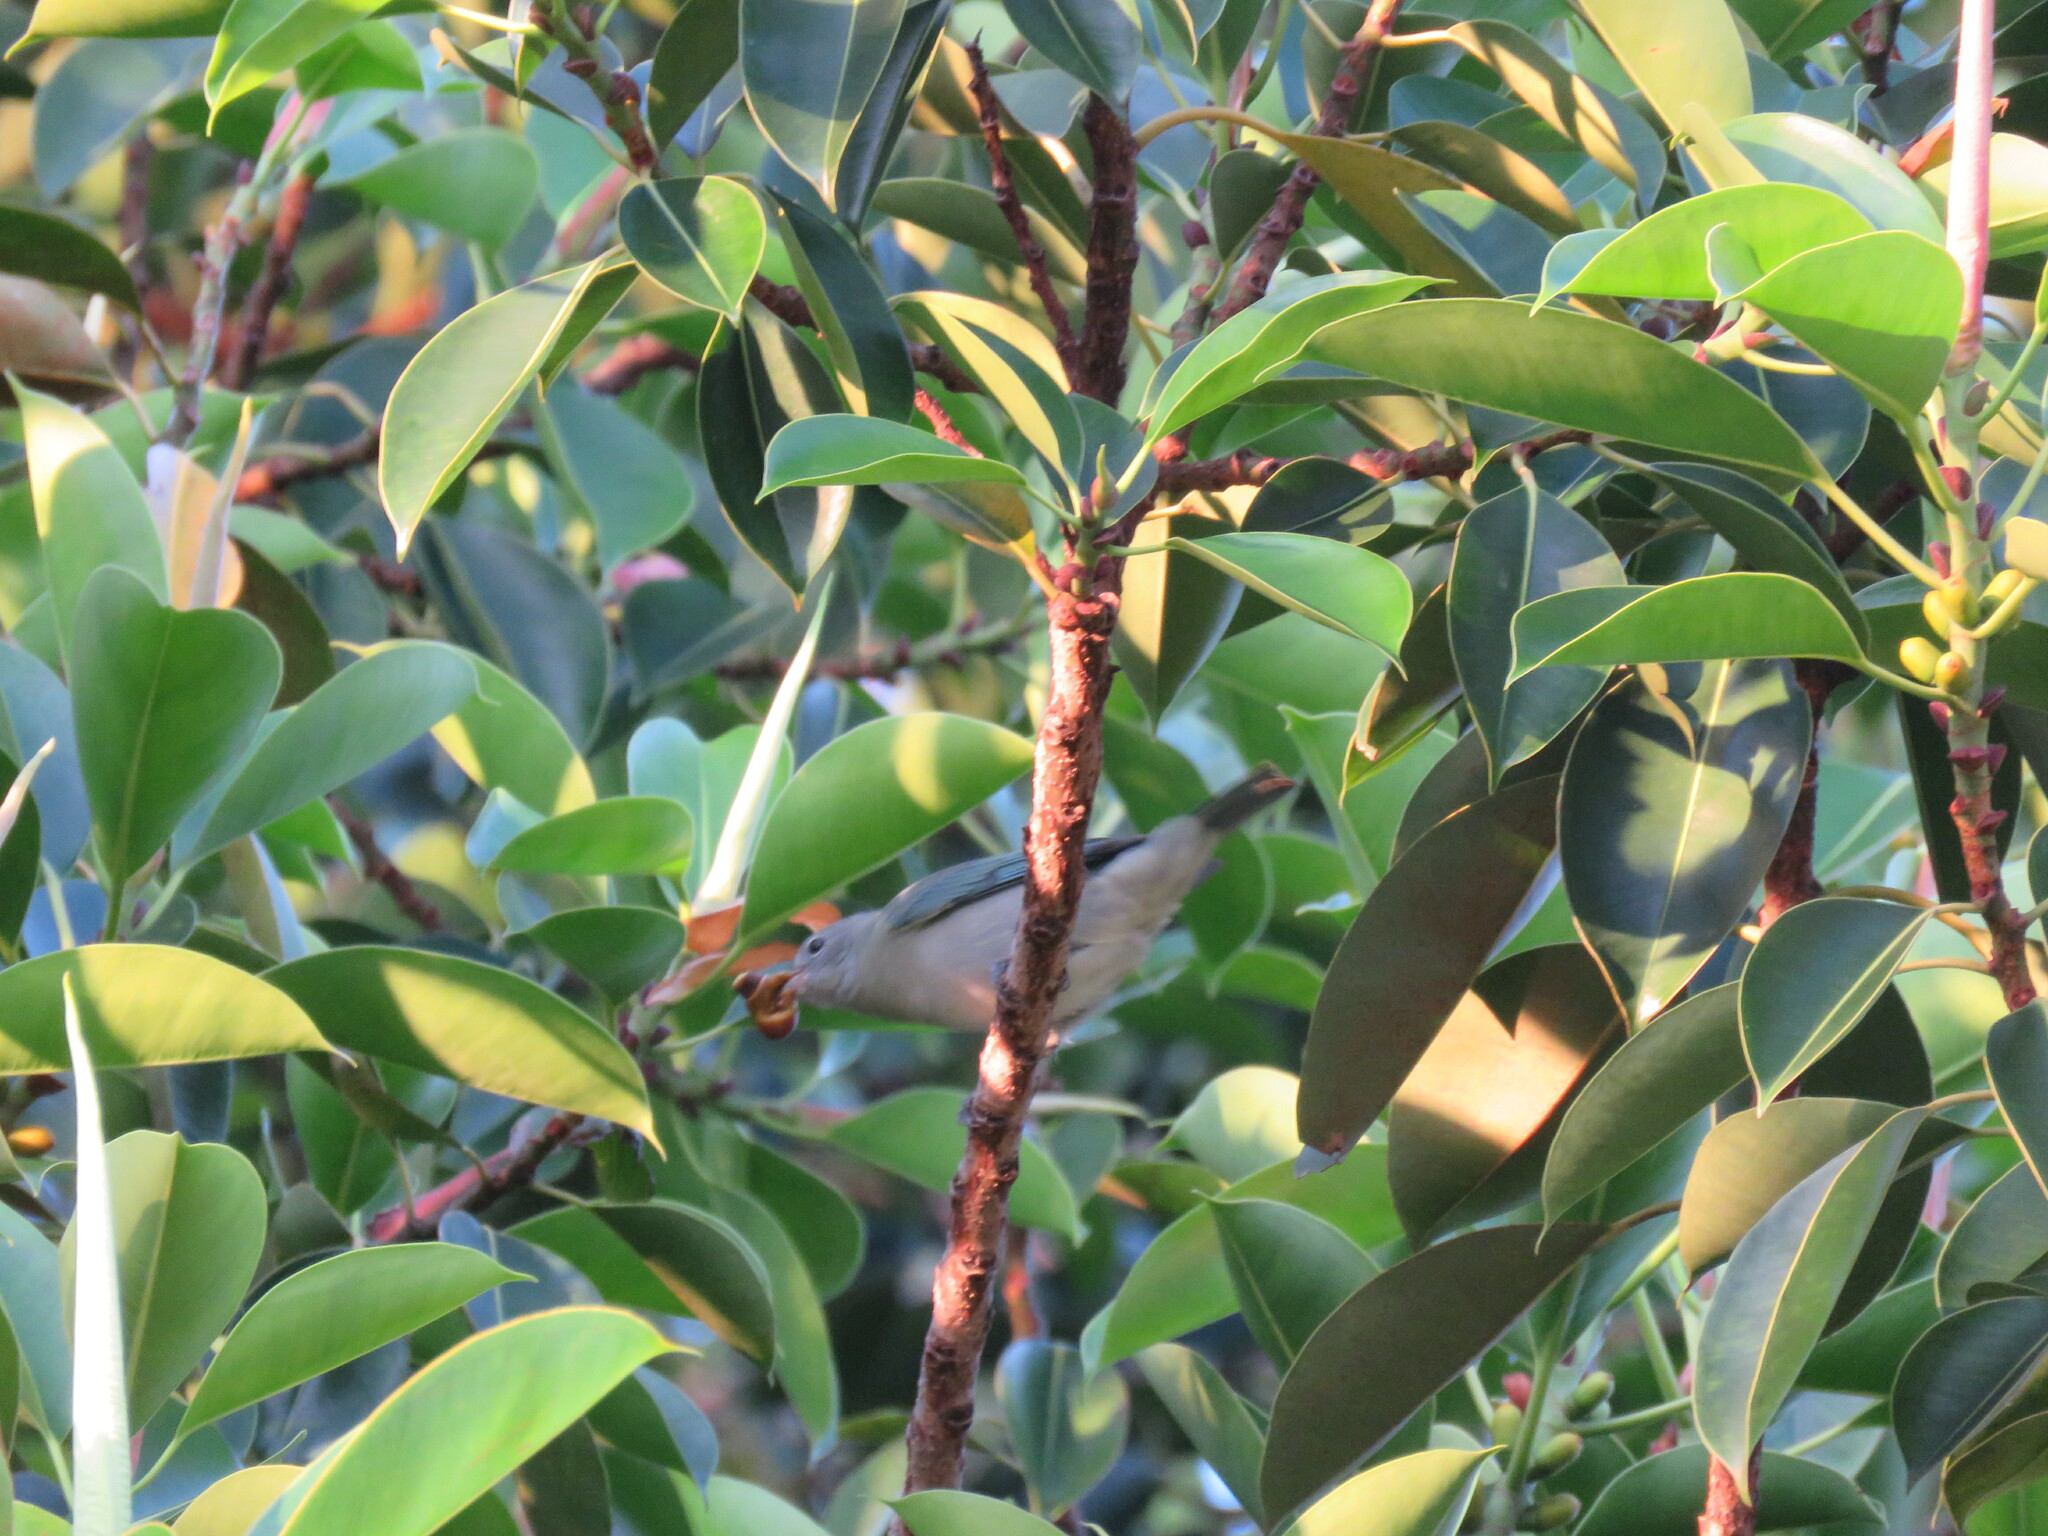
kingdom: Animalia
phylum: Chordata
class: Aves
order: Passeriformes
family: Thraupidae
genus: Thraupis
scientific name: Thraupis sayaca
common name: Sayaca tanager
